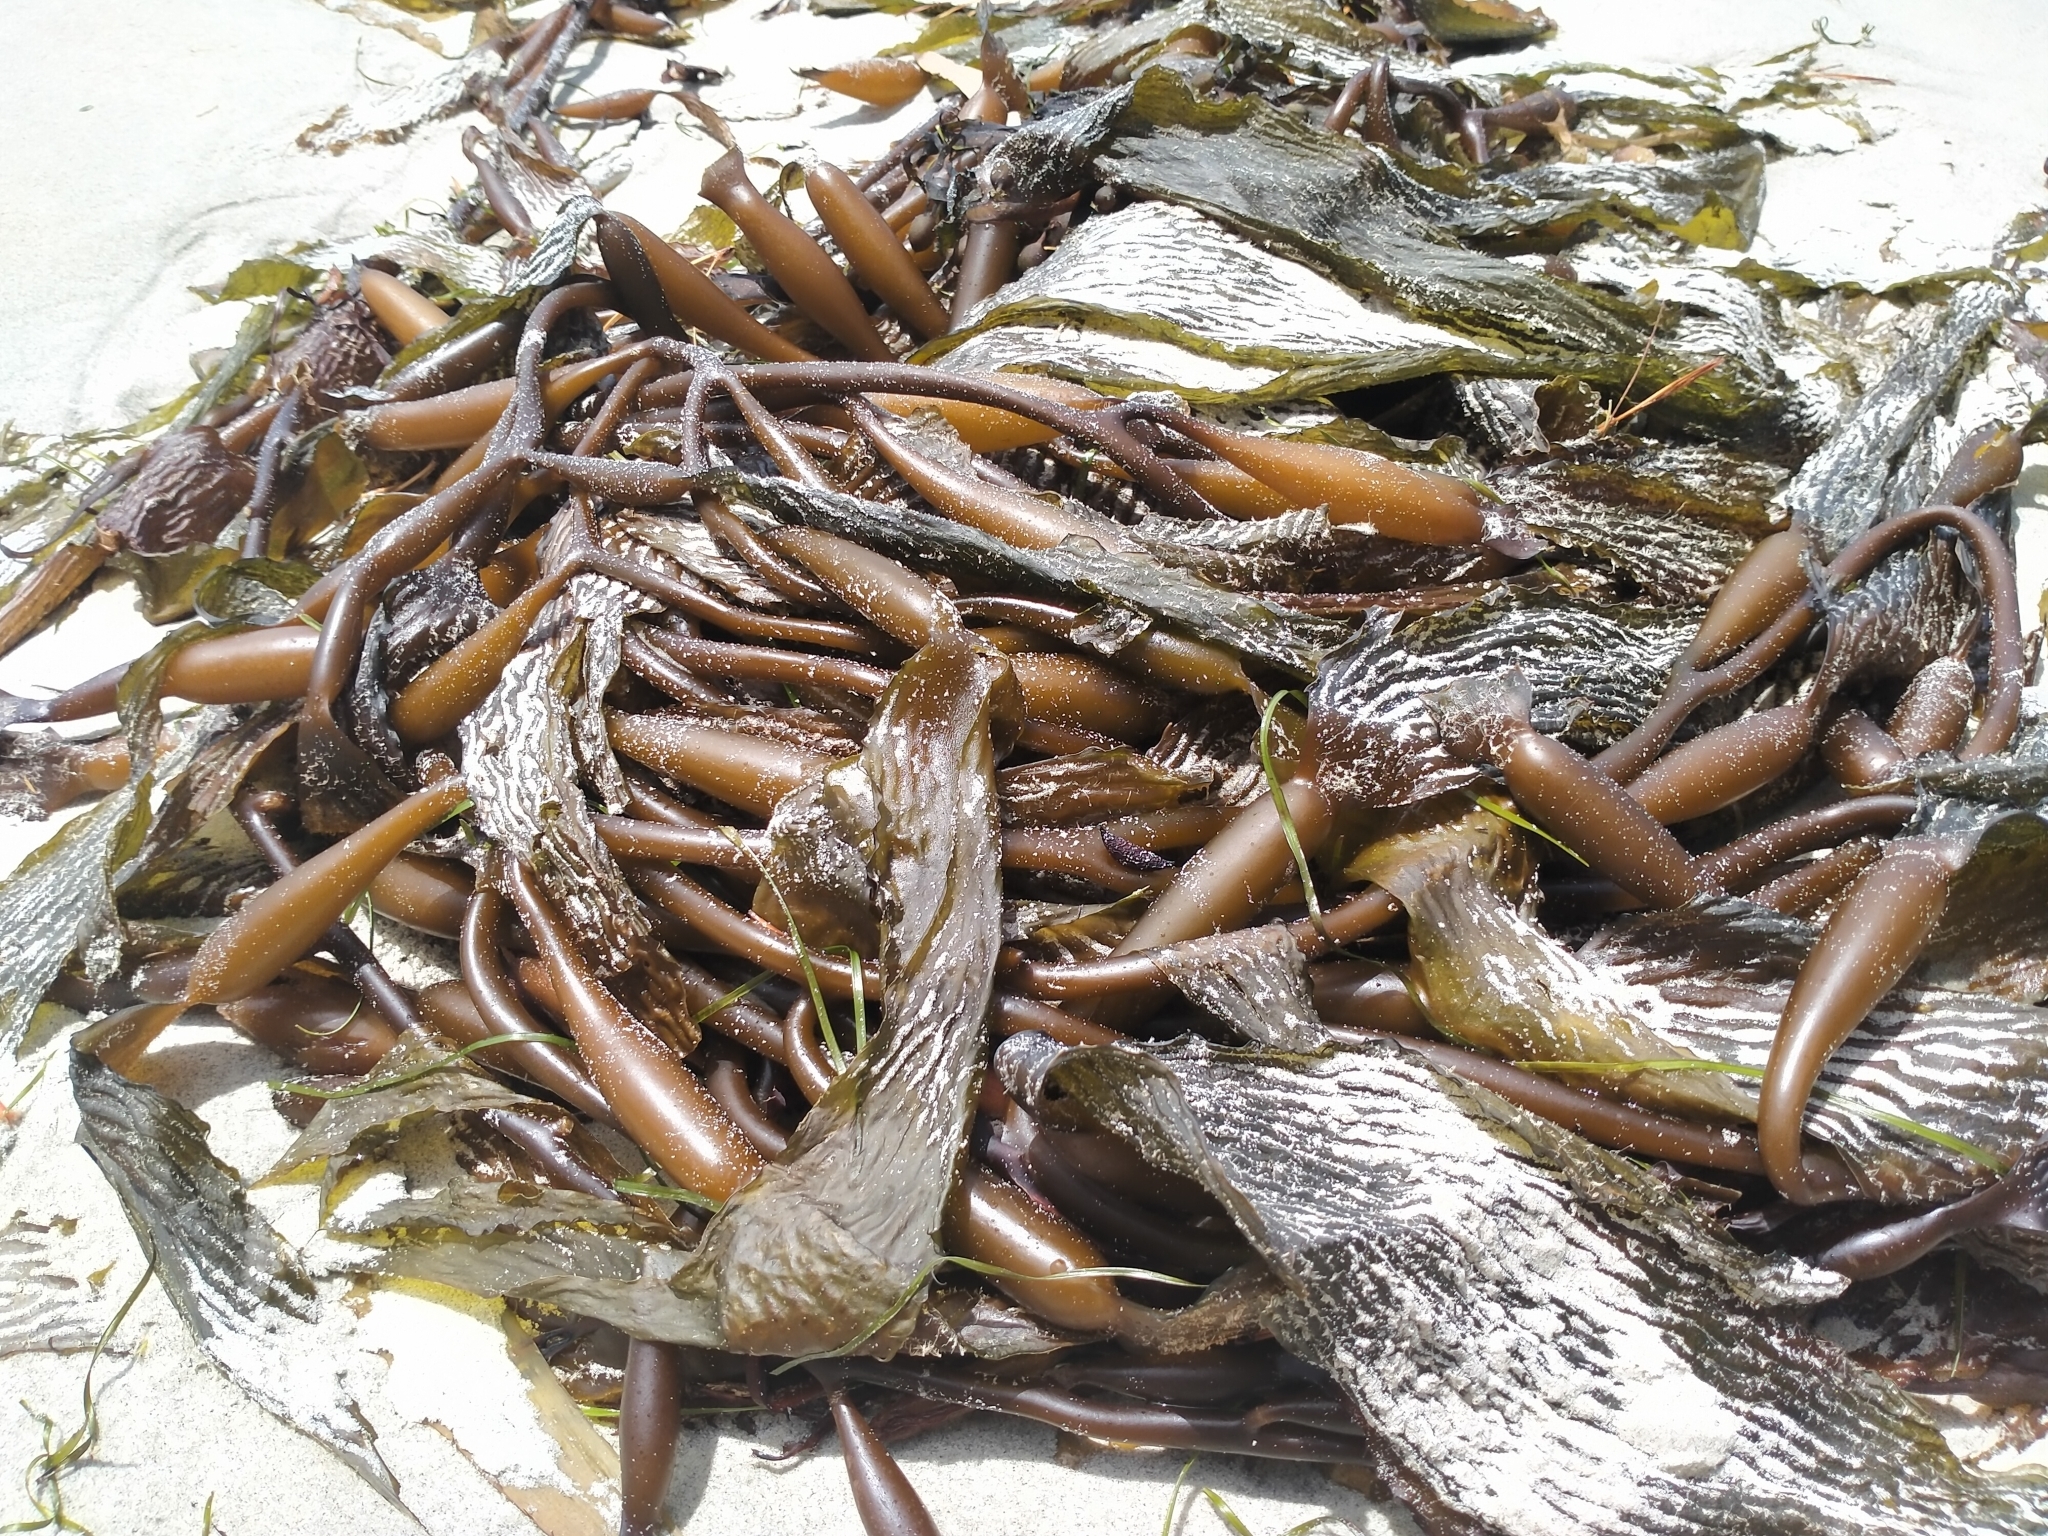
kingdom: Chromista
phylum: Ochrophyta
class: Phaeophyceae
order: Laminariales
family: Laminariaceae
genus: Macrocystis
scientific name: Macrocystis pyrifera
